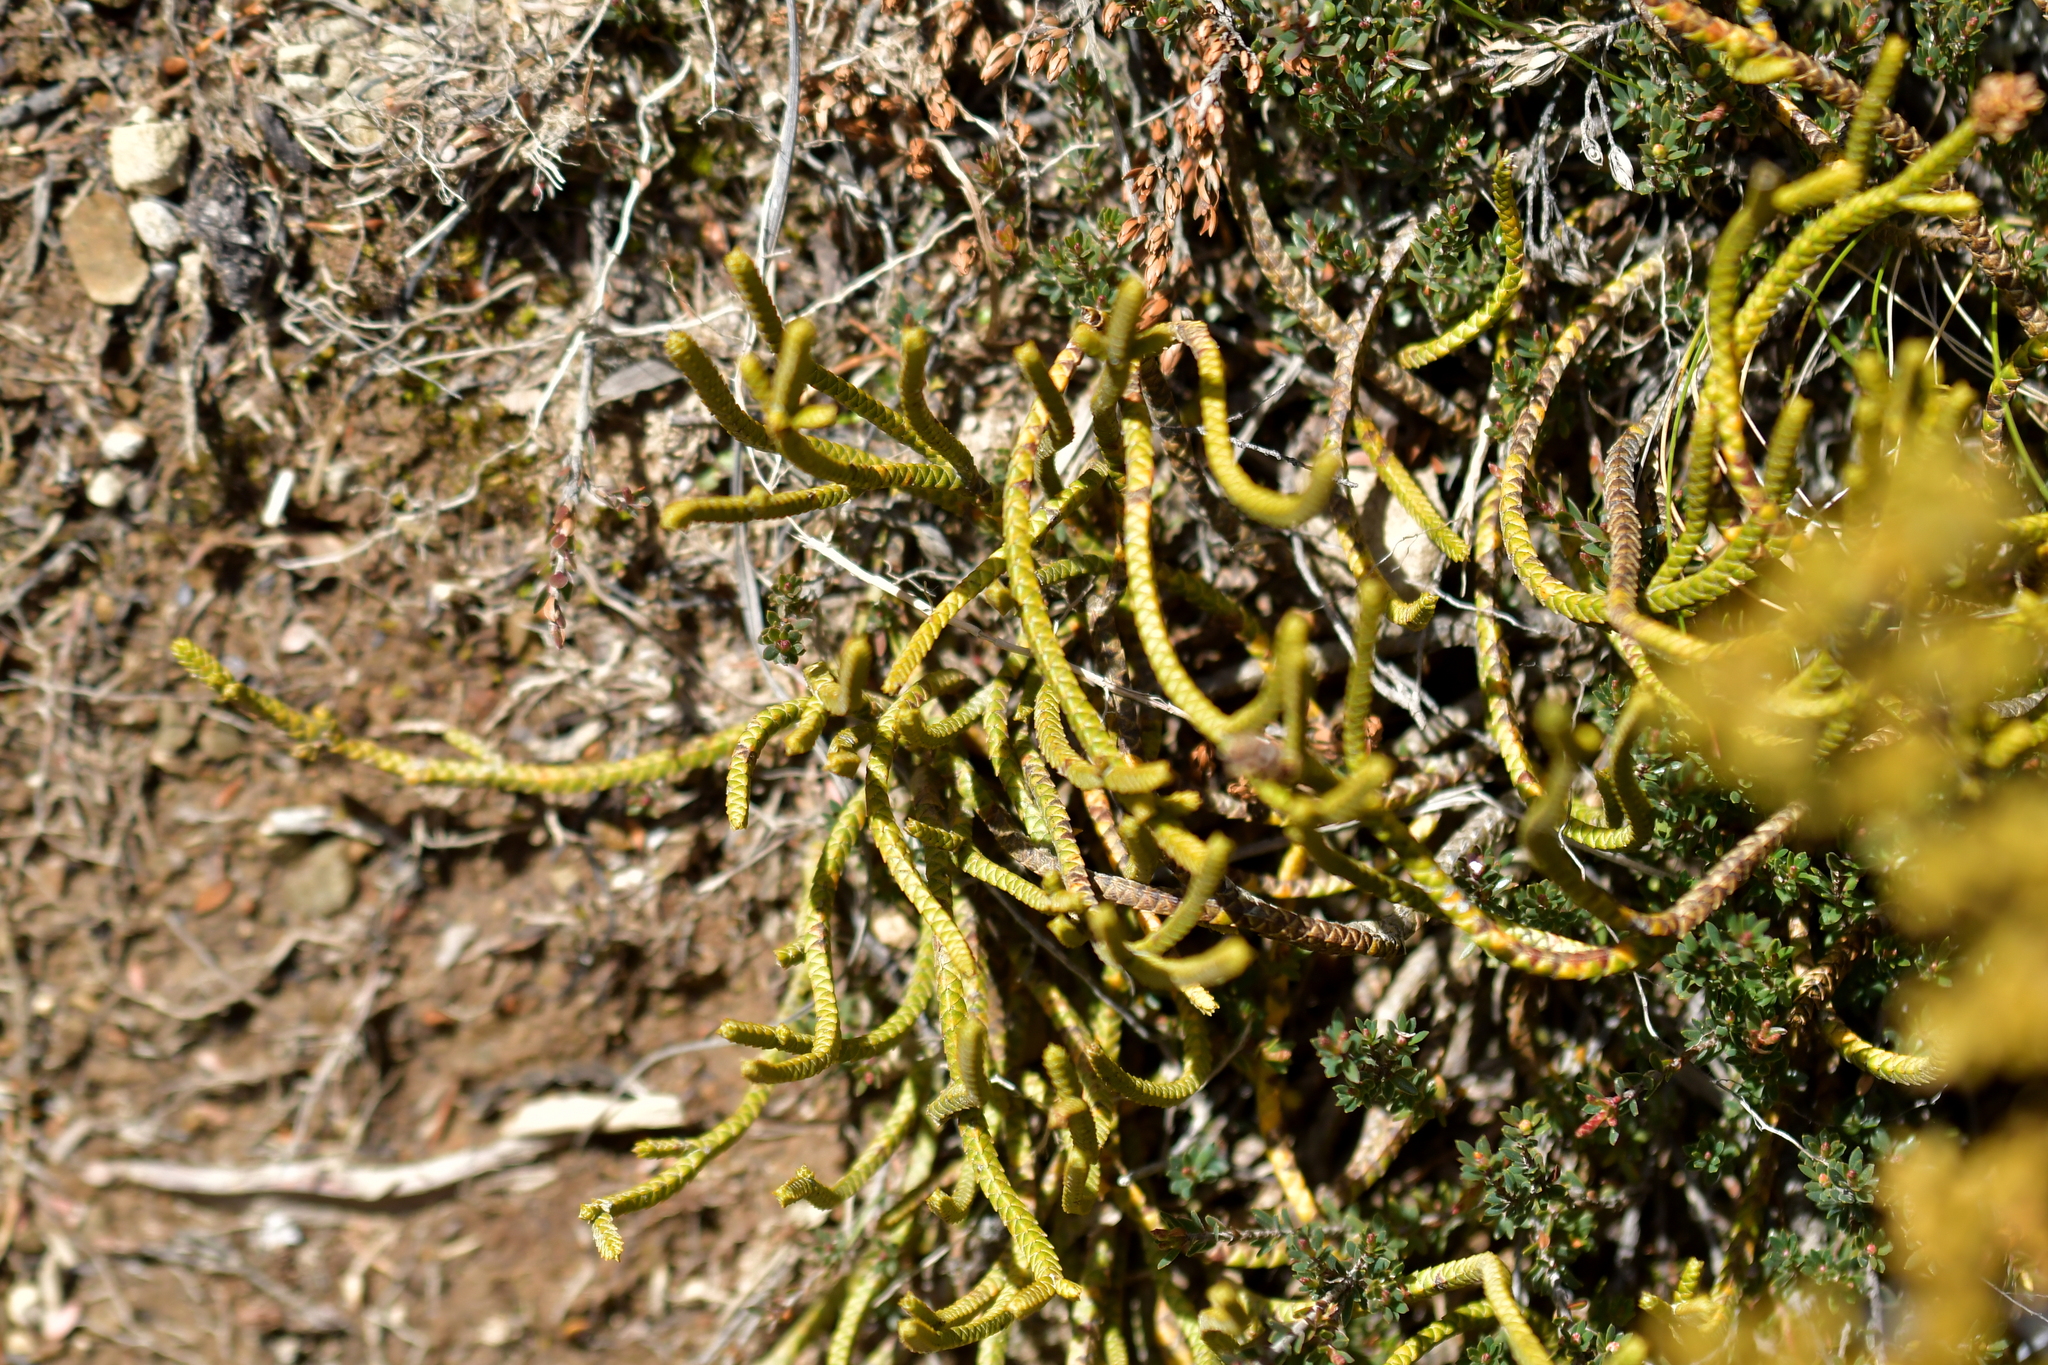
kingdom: Plantae
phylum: Tracheophyta
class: Magnoliopsida
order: Lamiales
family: Plantaginaceae
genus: Veronica
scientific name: Veronica lycopodioides
